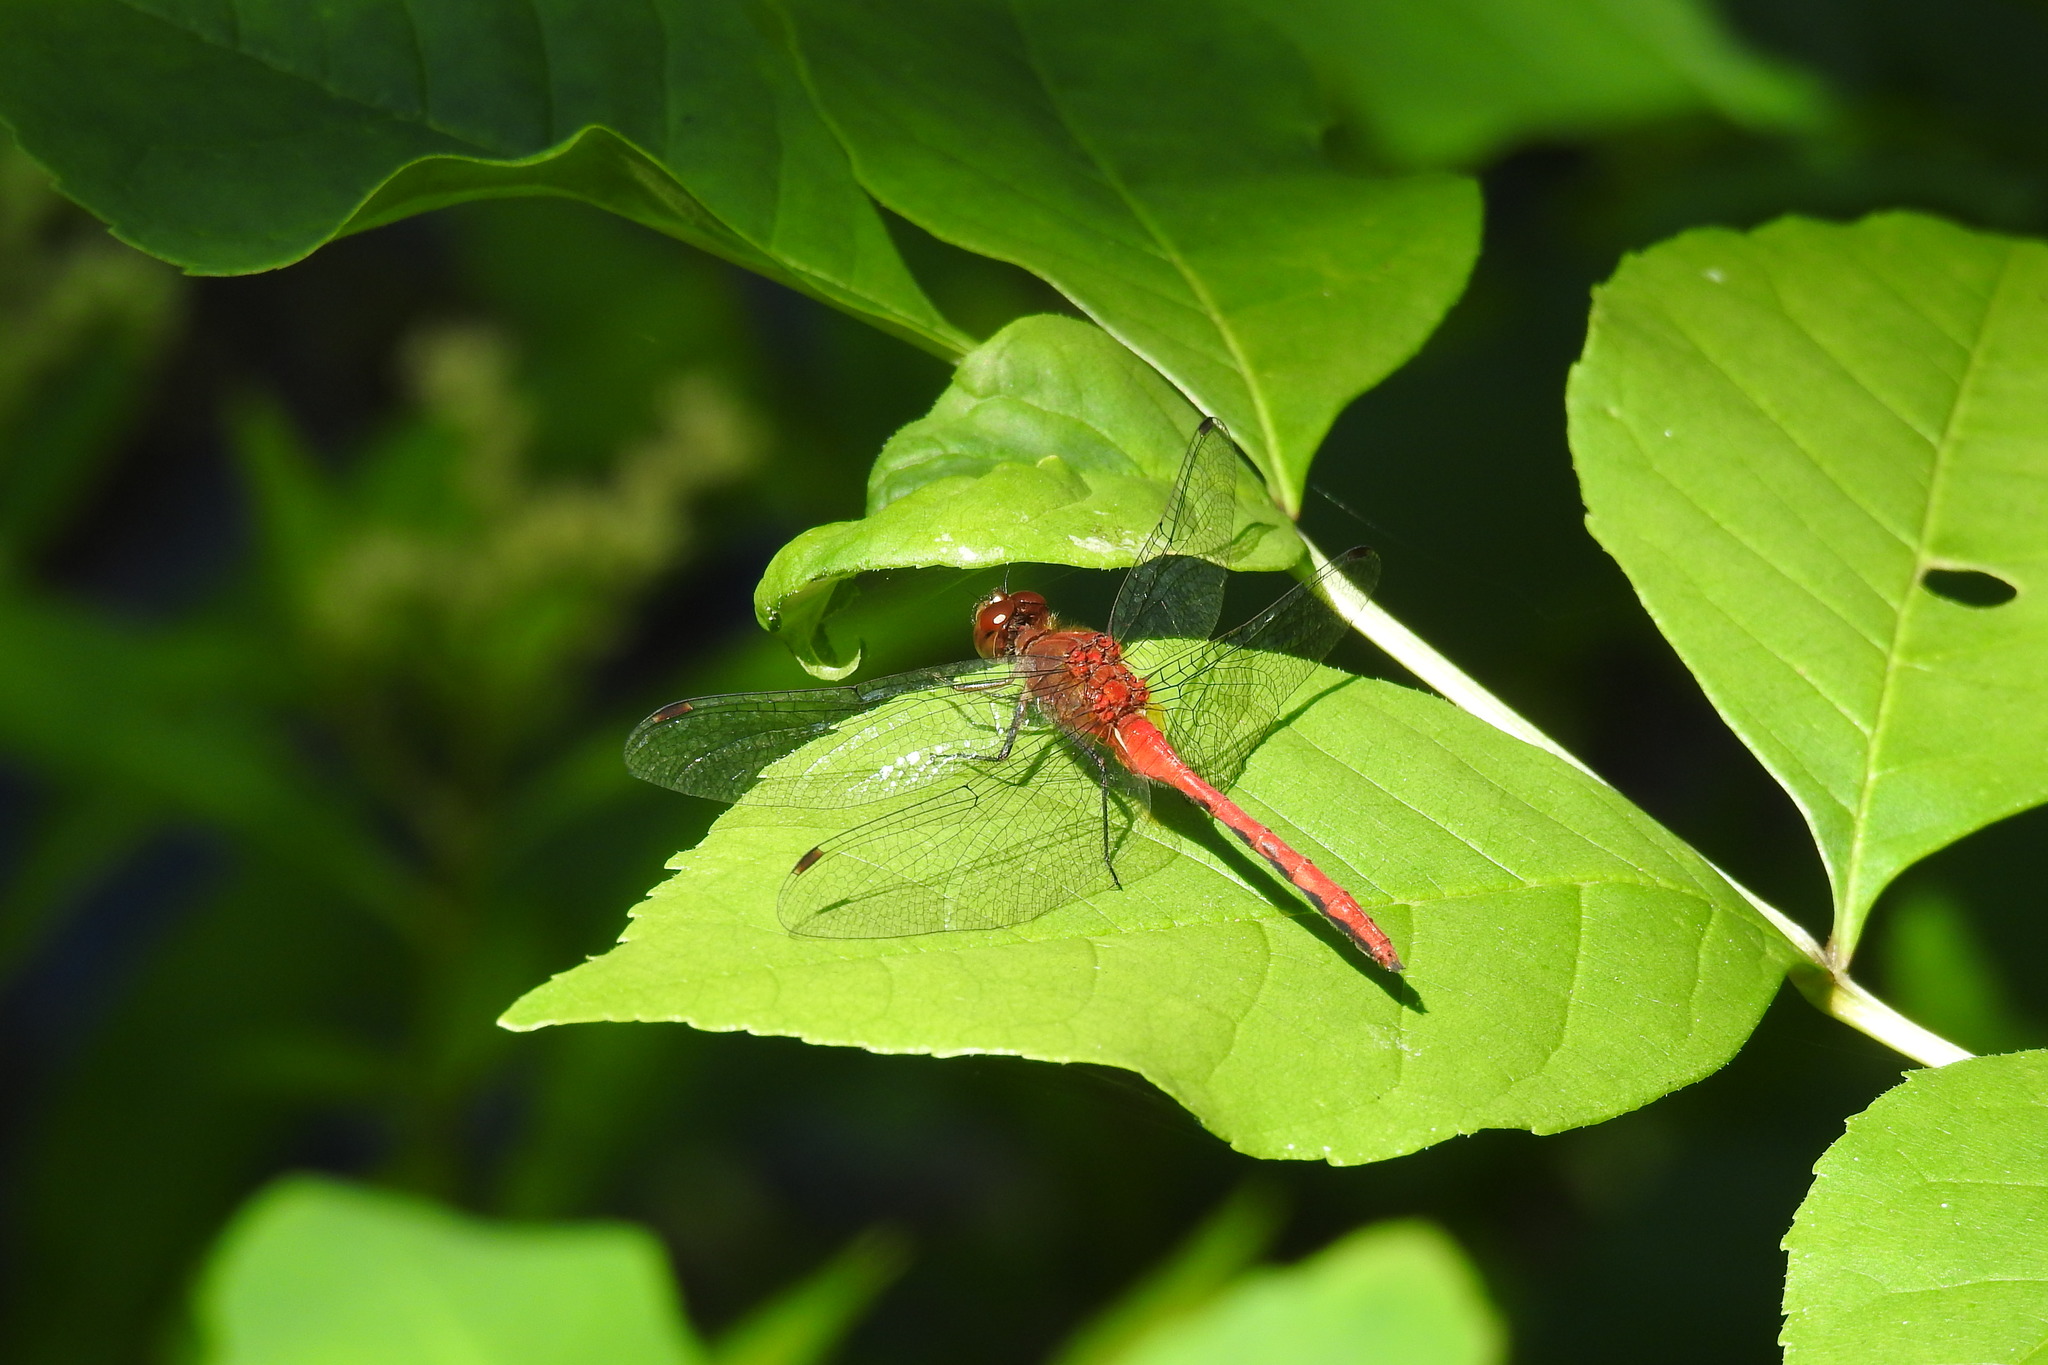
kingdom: Animalia
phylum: Arthropoda
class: Insecta
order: Odonata
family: Libellulidae
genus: Sympetrum
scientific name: Sympetrum
